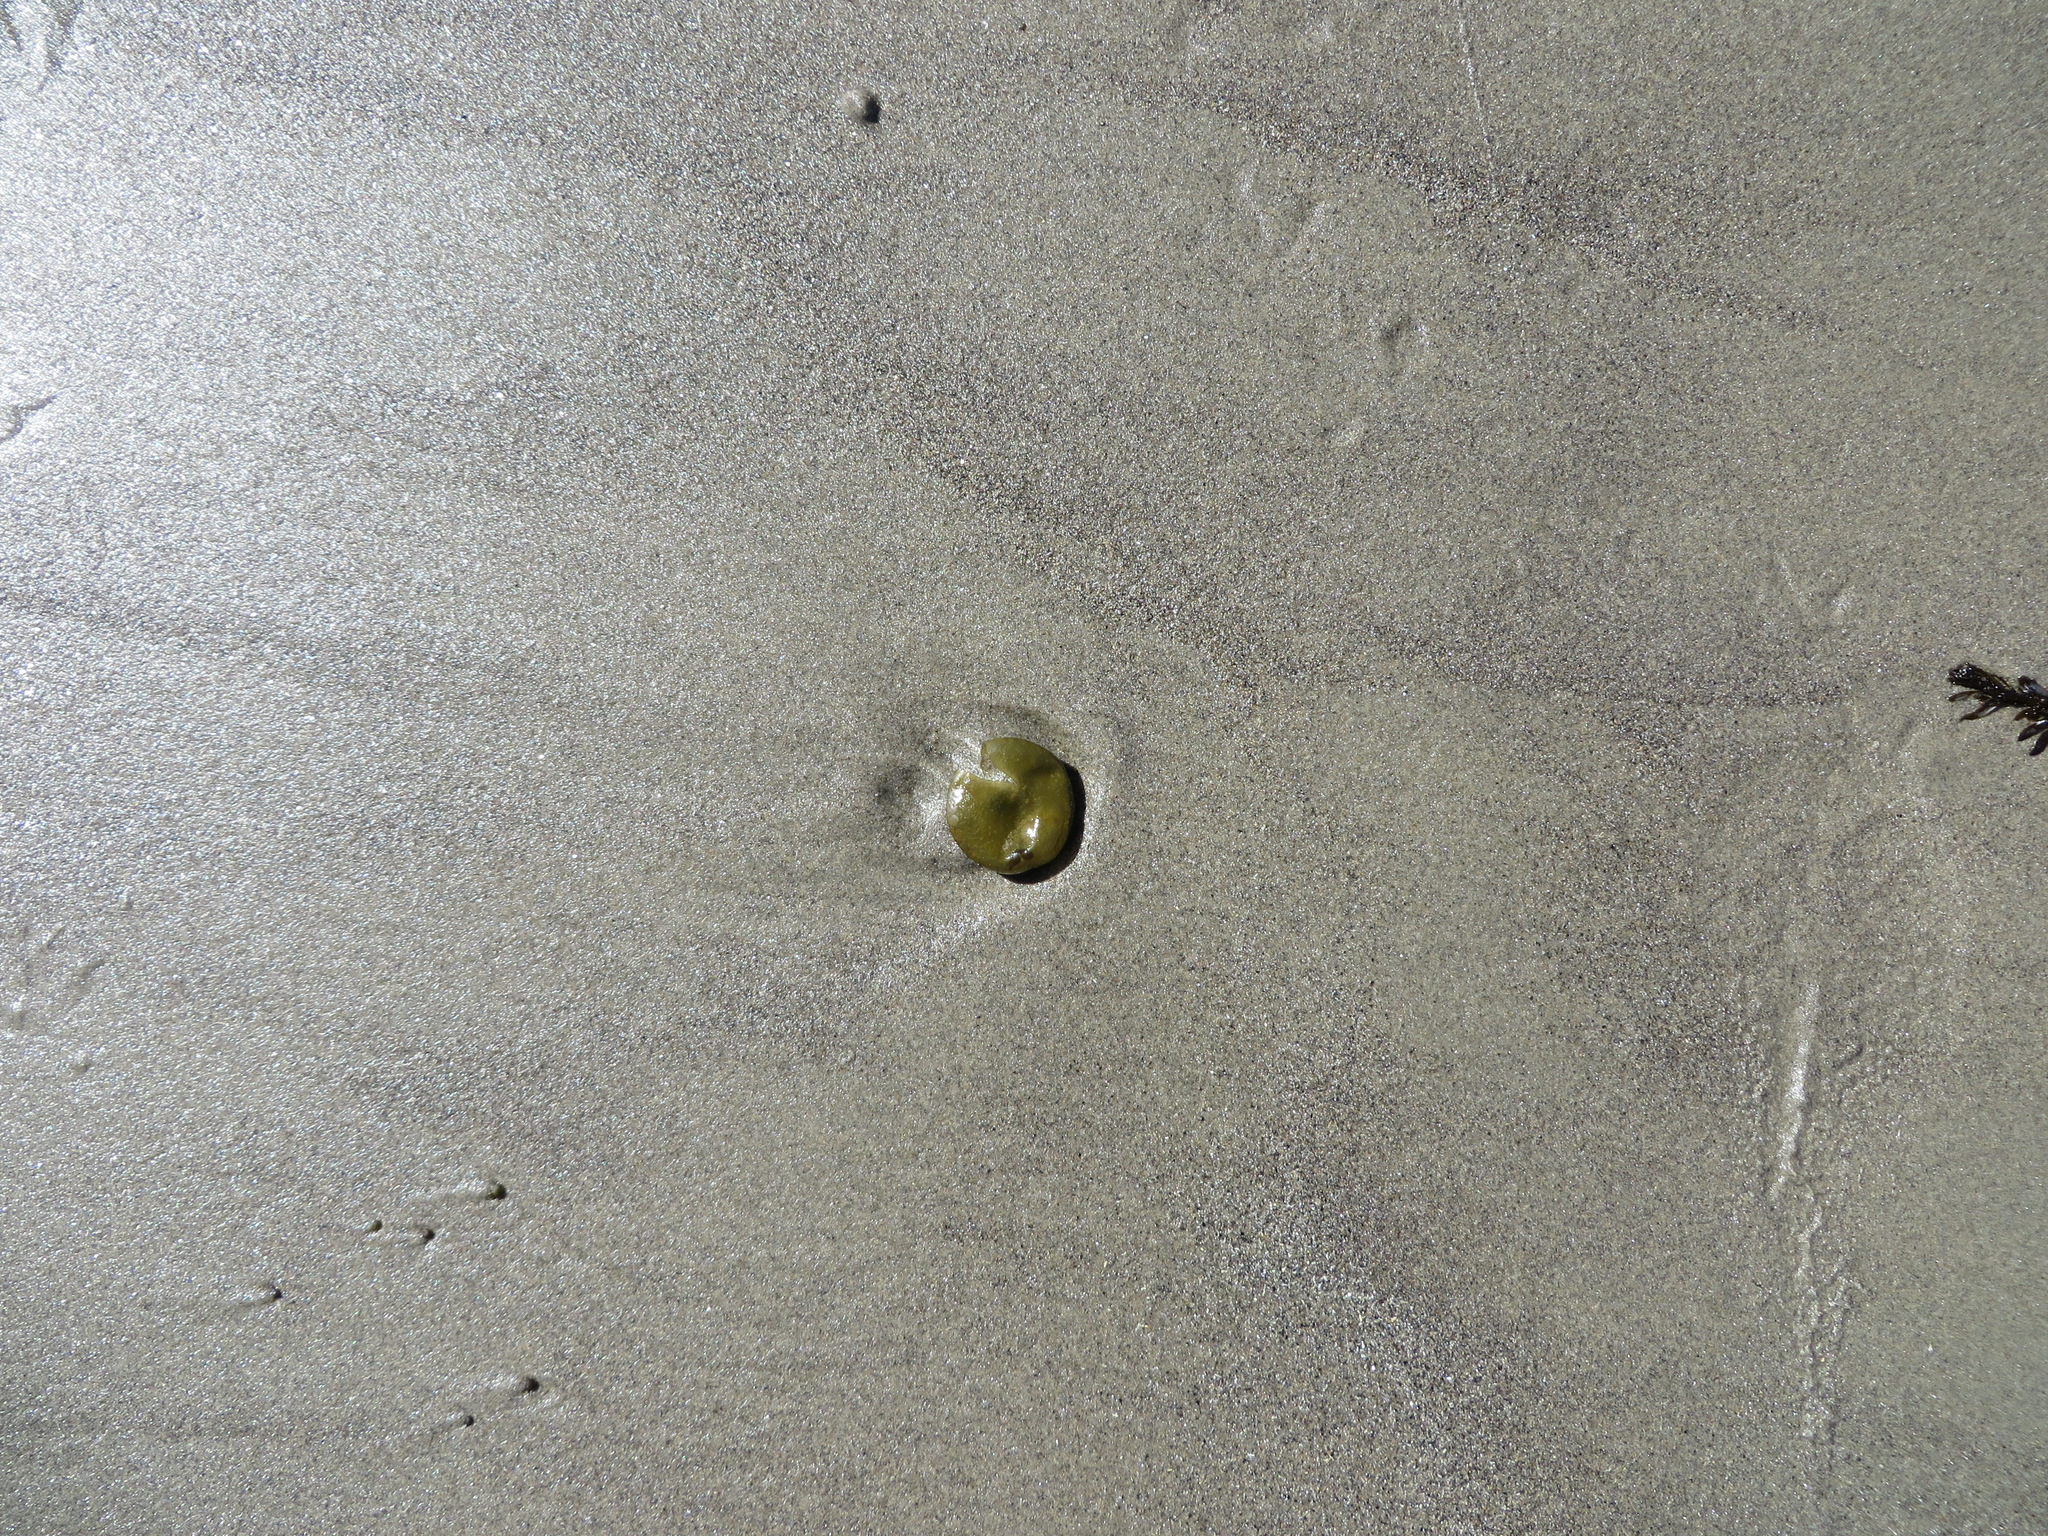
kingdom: Chromista
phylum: Ochrophyta
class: Phaeophyceae
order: Scytosiphonales
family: Scytosiphonaceae
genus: Colpomenia
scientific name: Colpomenia peregrina
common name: Oyster thief
